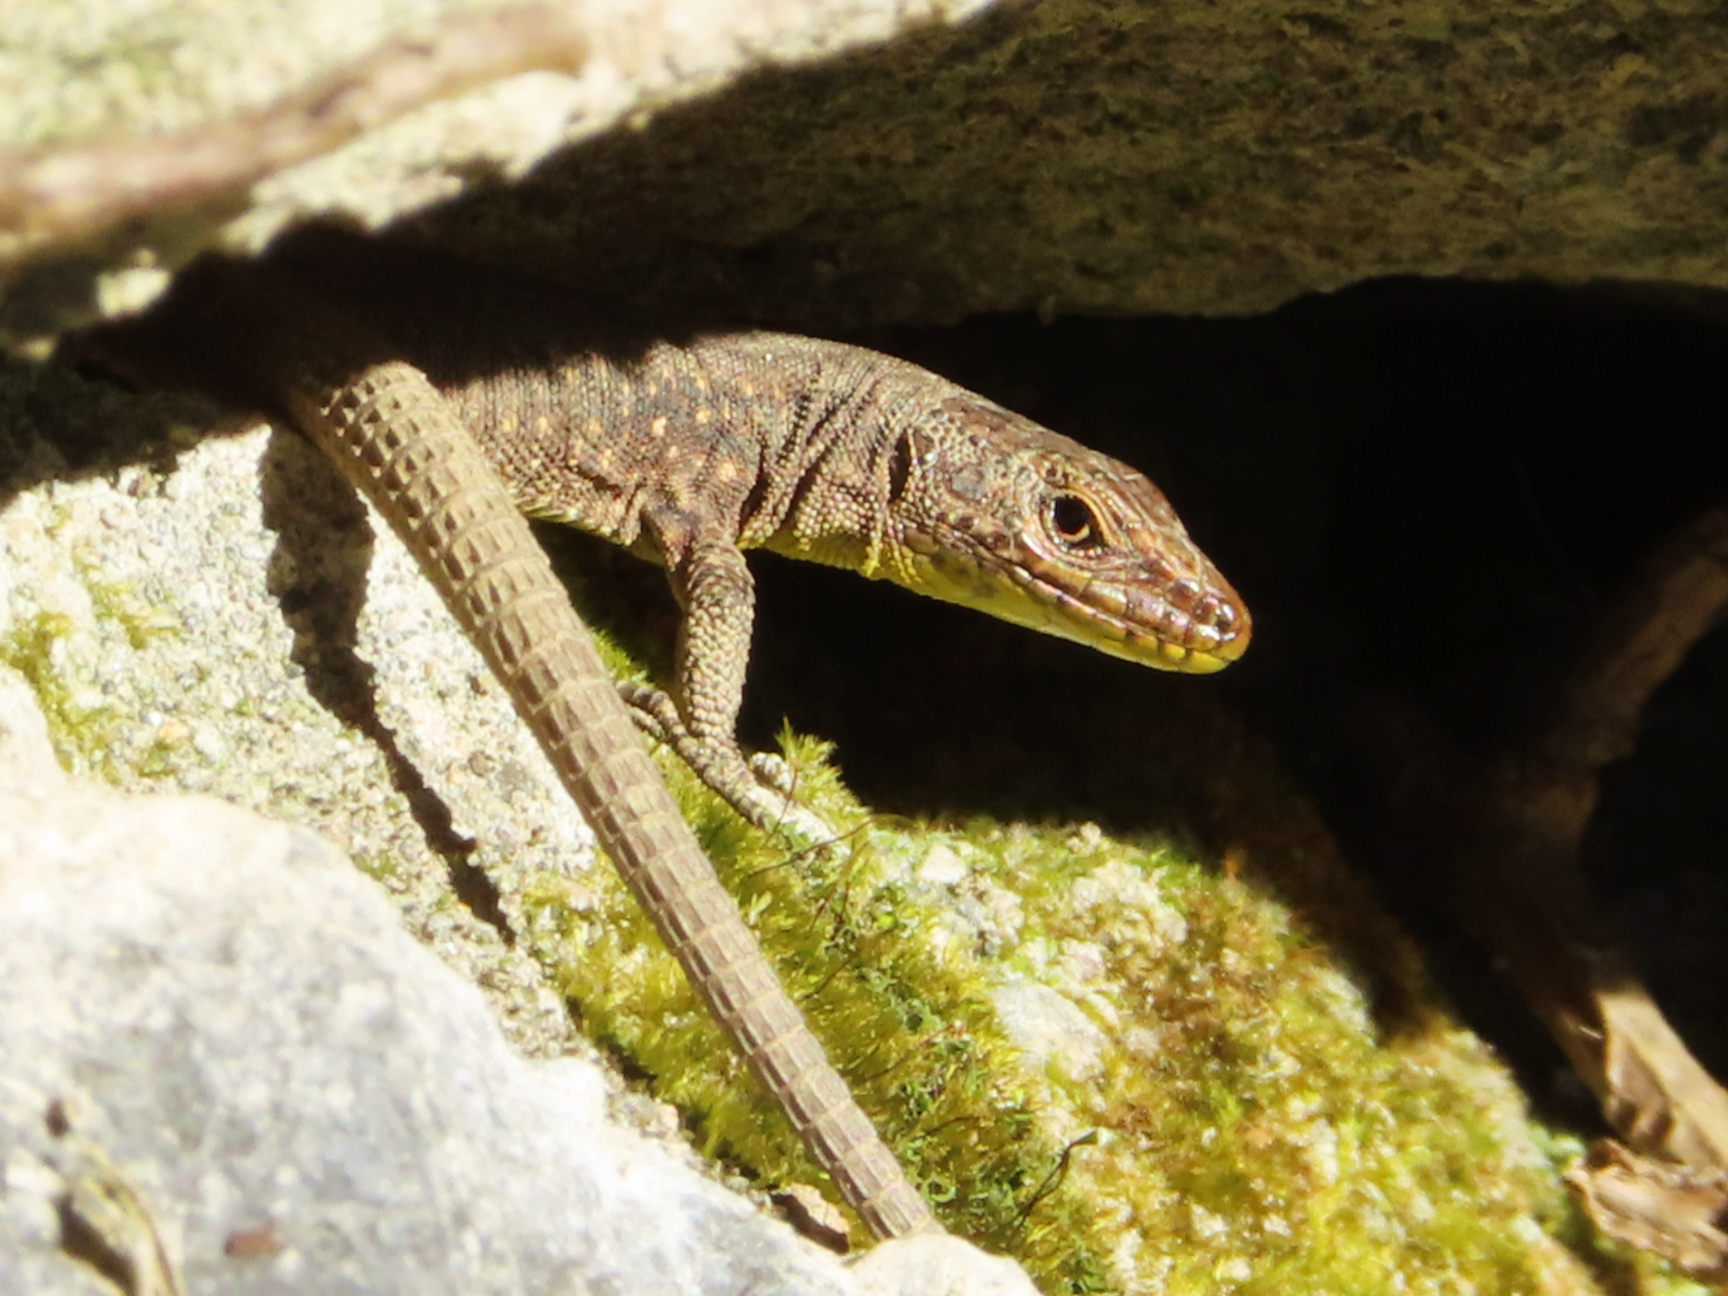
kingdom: Animalia
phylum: Chordata
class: Squamata
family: Lacertidae
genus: Darevskia
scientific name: Darevskia rudis
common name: Spiny-tailed lizard
